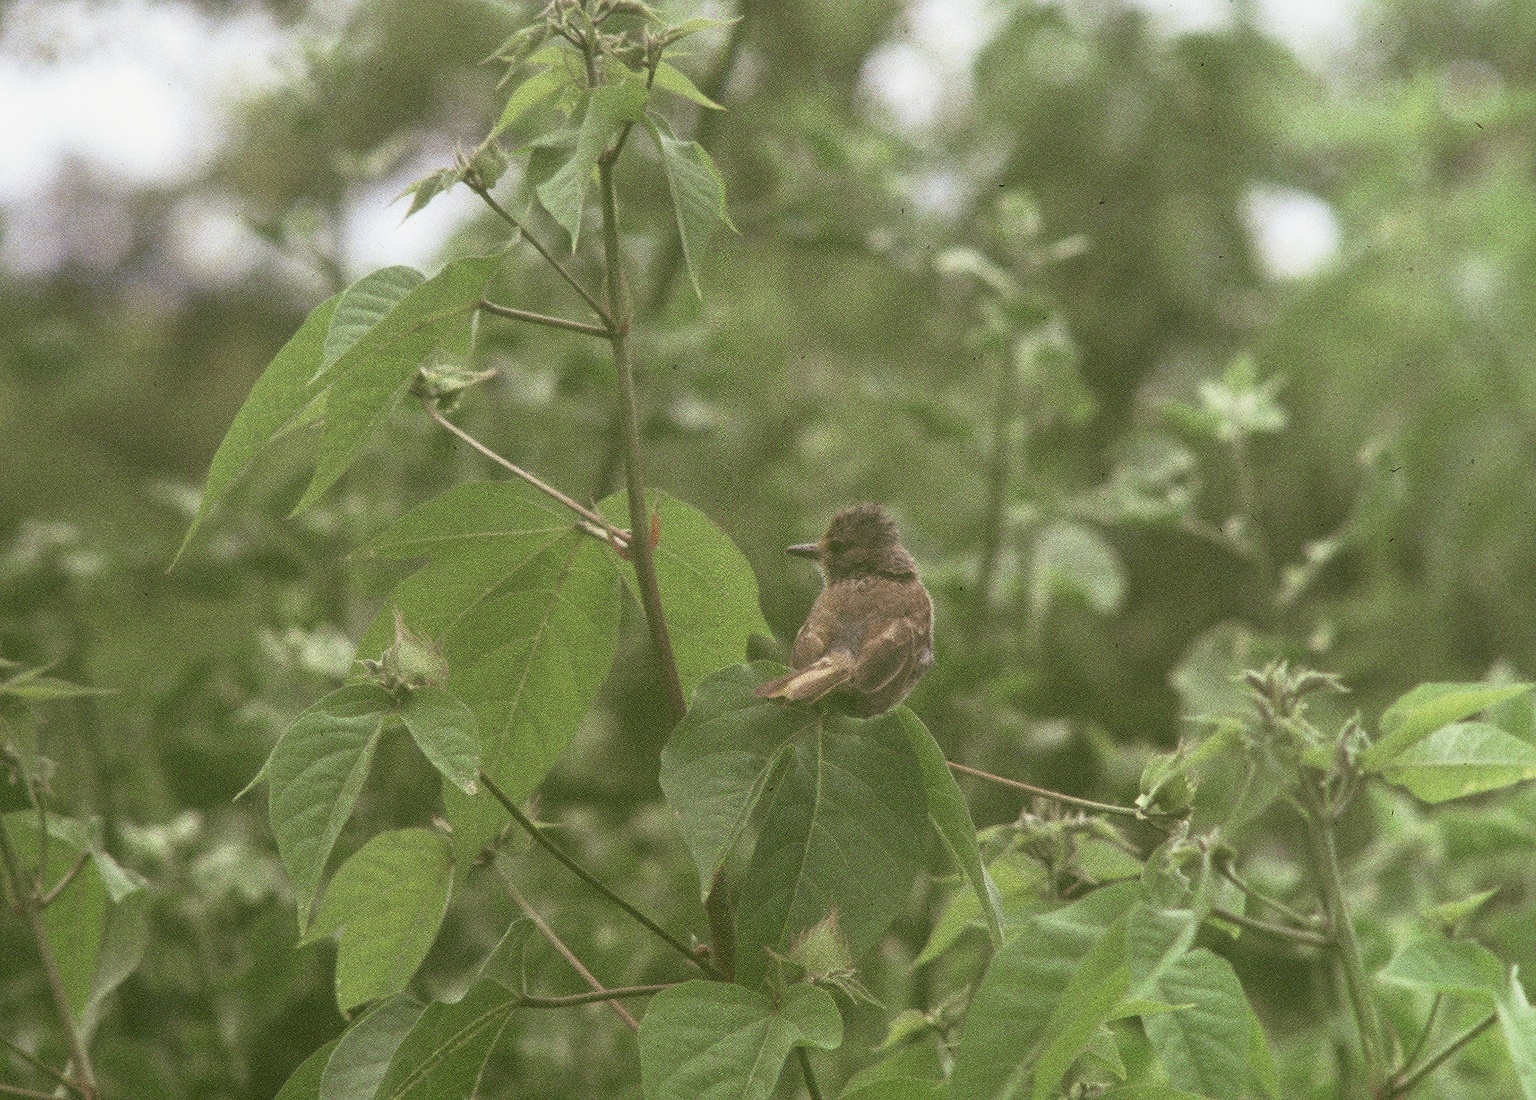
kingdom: Animalia
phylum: Chordata
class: Aves
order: Passeriformes
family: Tyrannidae
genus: Myiarchus
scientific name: Myiarchus magnirostris
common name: Galapagos flycatcher
